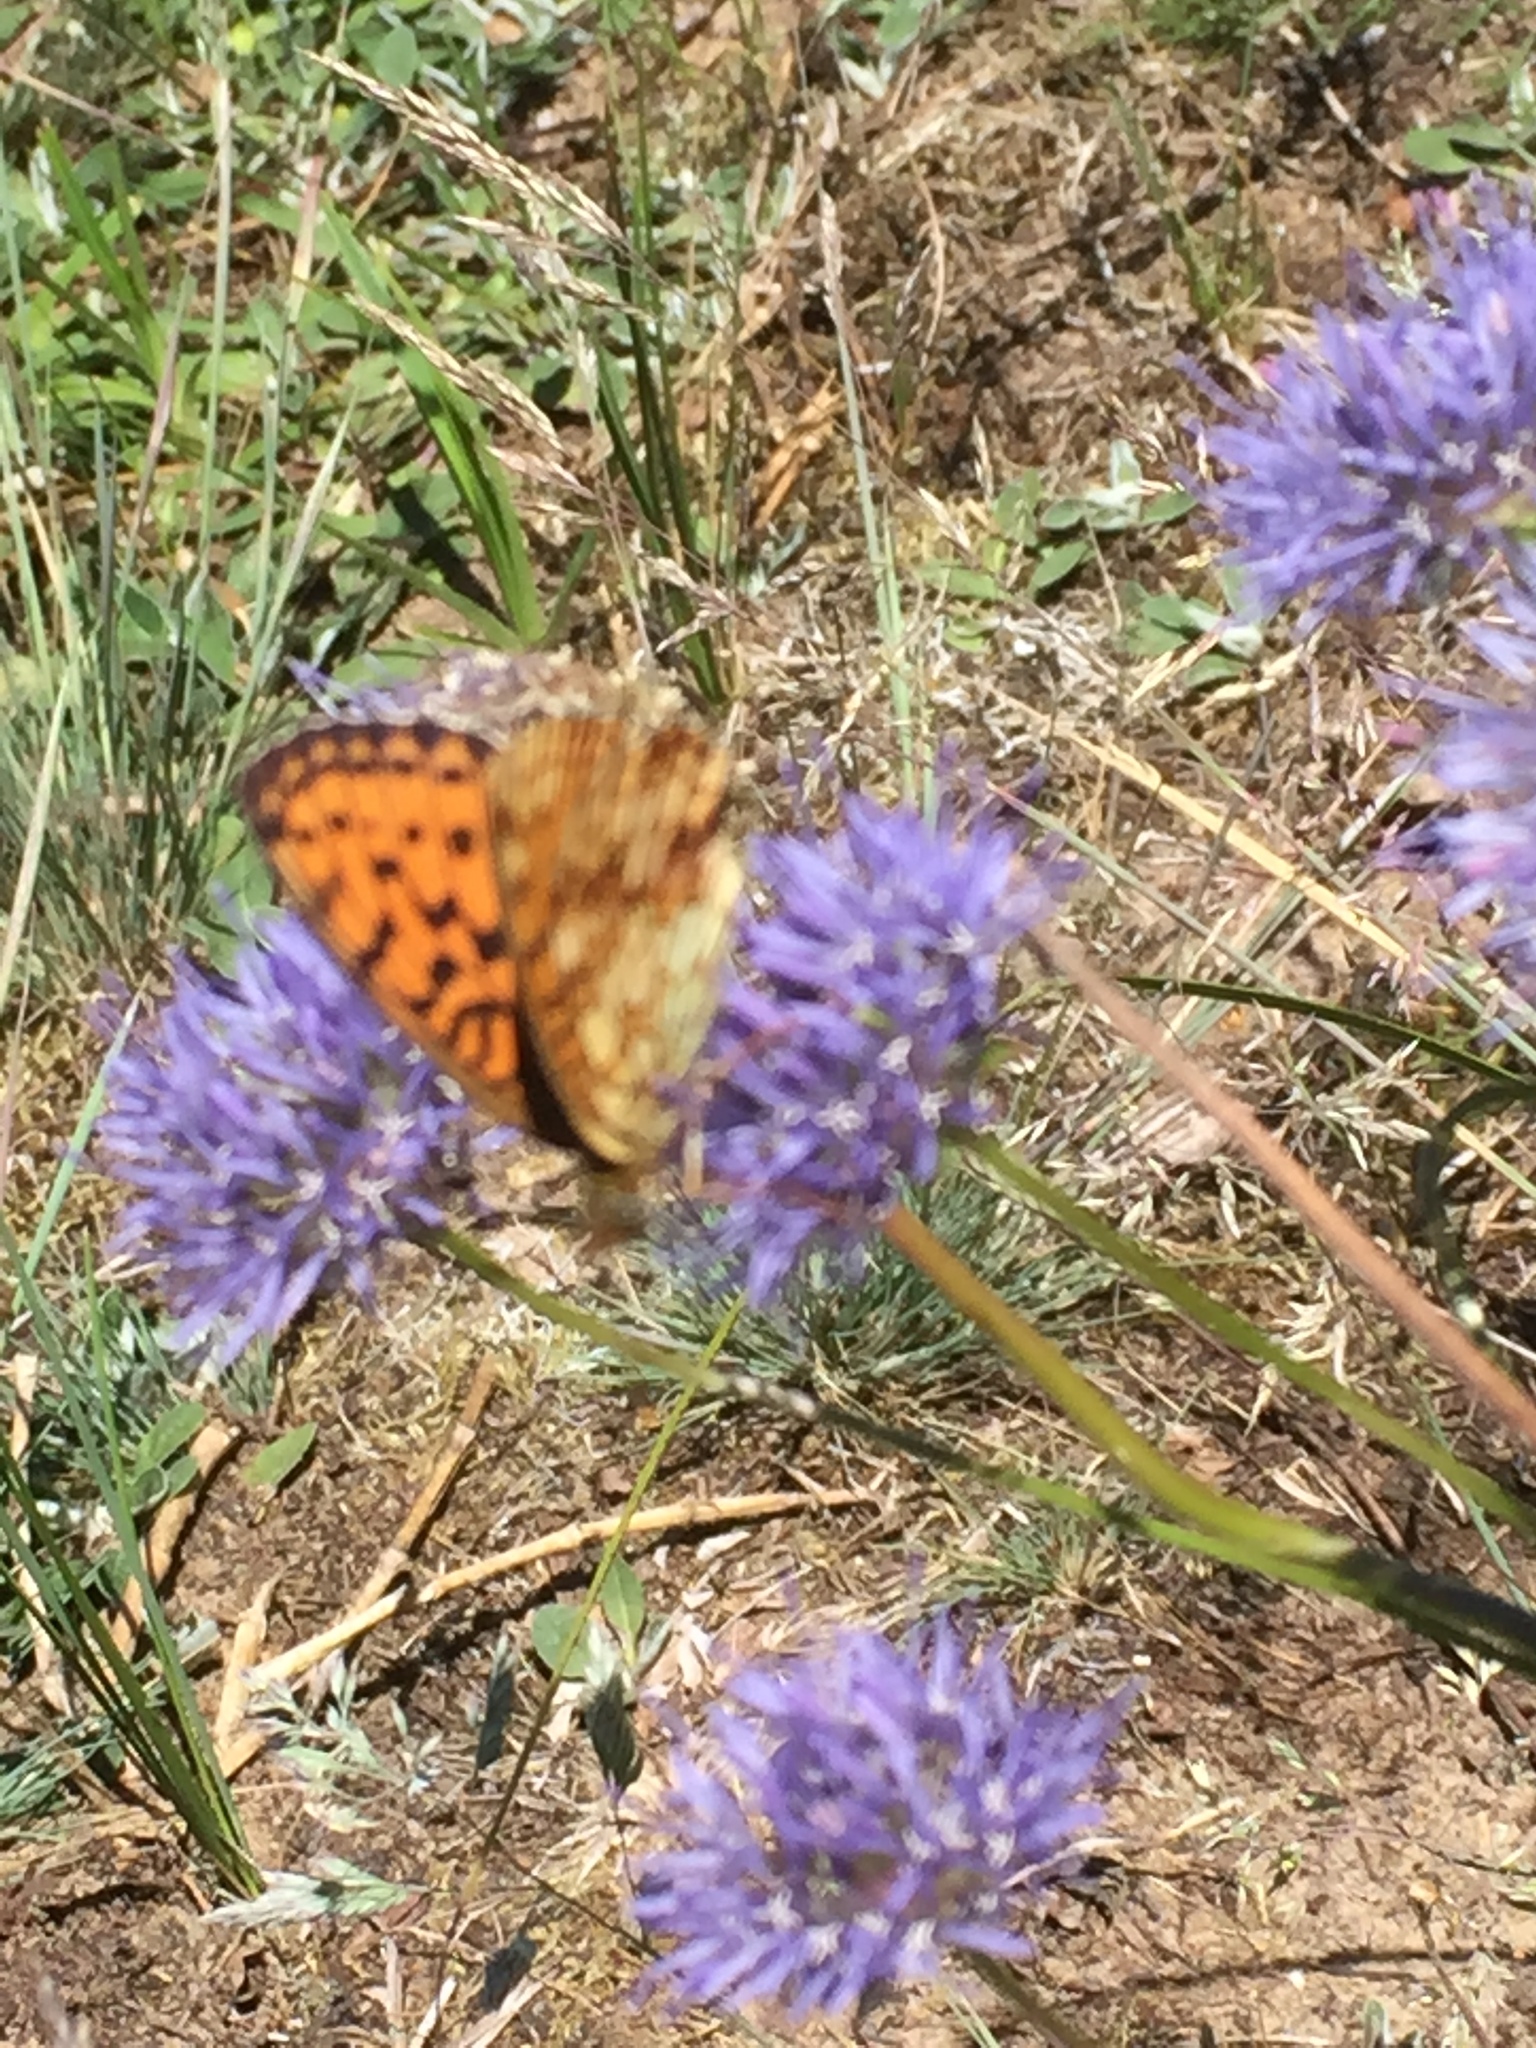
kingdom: Animalia
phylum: Arthropoda
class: Insecta
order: Lepidoptera
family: Nymphalidae
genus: Brenthis
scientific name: Brenthis ino
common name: Lesser marbled fritillary
